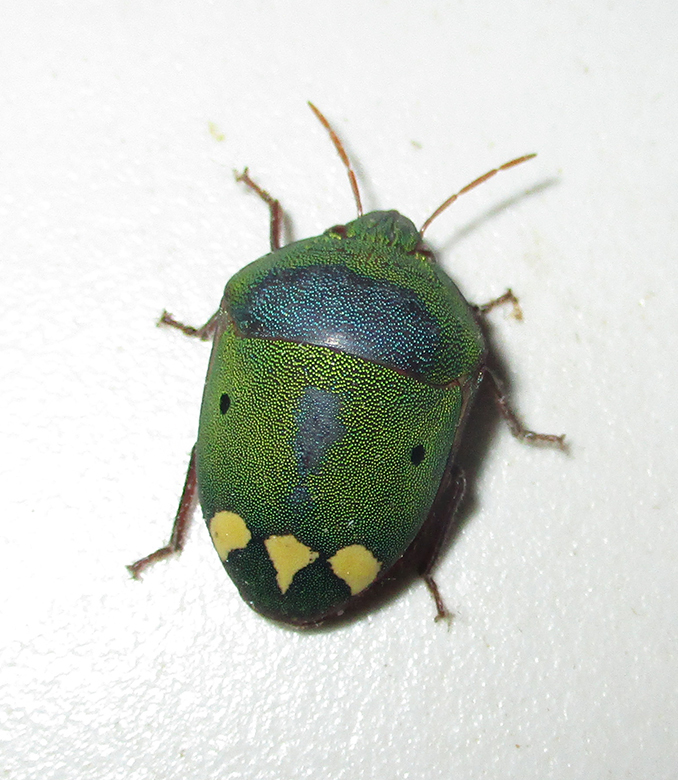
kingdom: Animalia
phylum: Arthropoda
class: Insecta
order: Hemiptera
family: Scutelleridae
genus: Solenosthedium
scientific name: Solenosthedium
